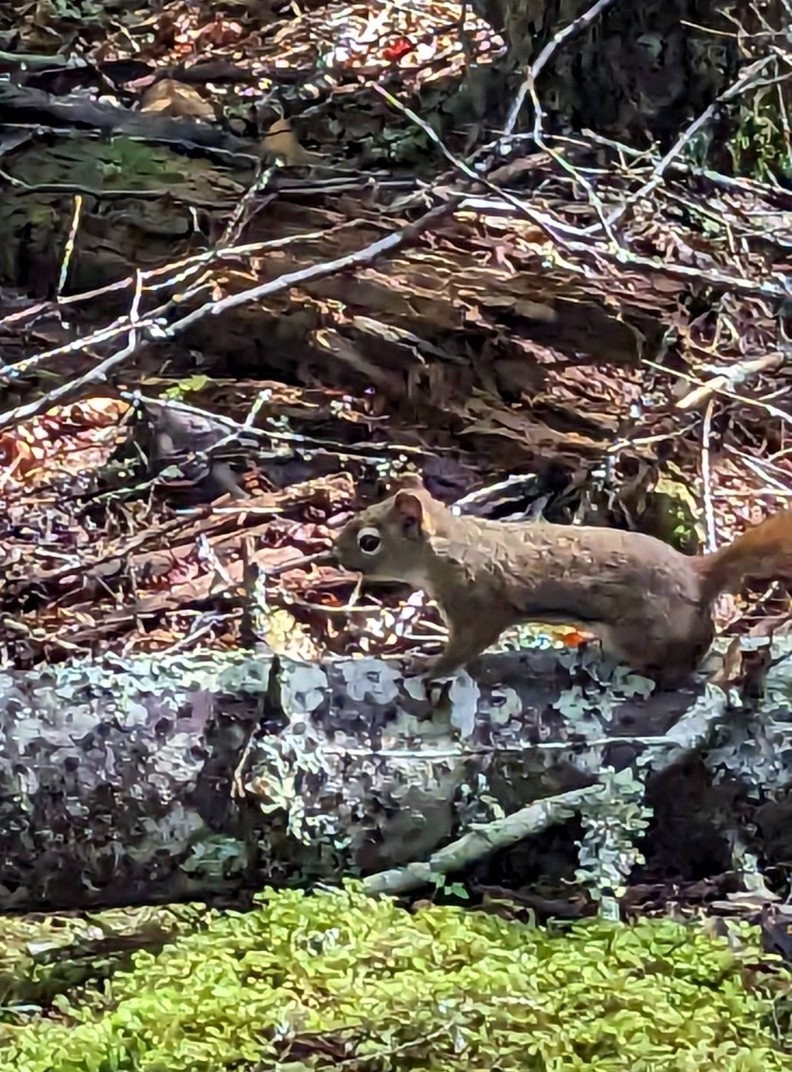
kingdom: Animalia
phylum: Chordata
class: Mammalia
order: Rodentia
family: Sciuridae
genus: Tamiasciurus
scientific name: Tamiasciurus hudsonicus
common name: Red squirrel
